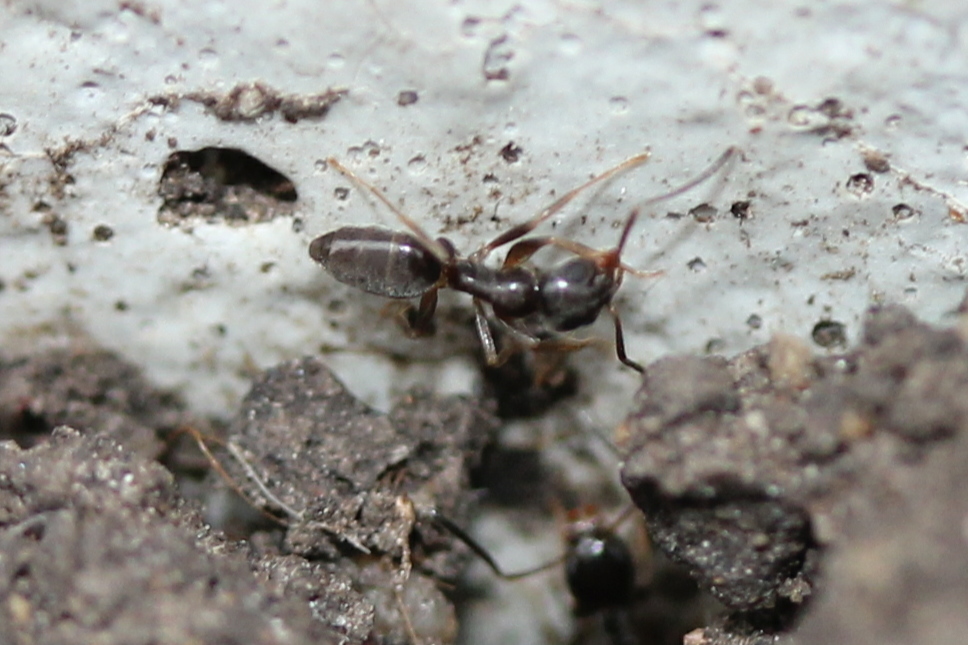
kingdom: Animalia
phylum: Arthropoda
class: Insecta
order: Hymenoptera
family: Formicidae
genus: Tapinoma
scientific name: Tapinoma sessile
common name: Odorous house ant
